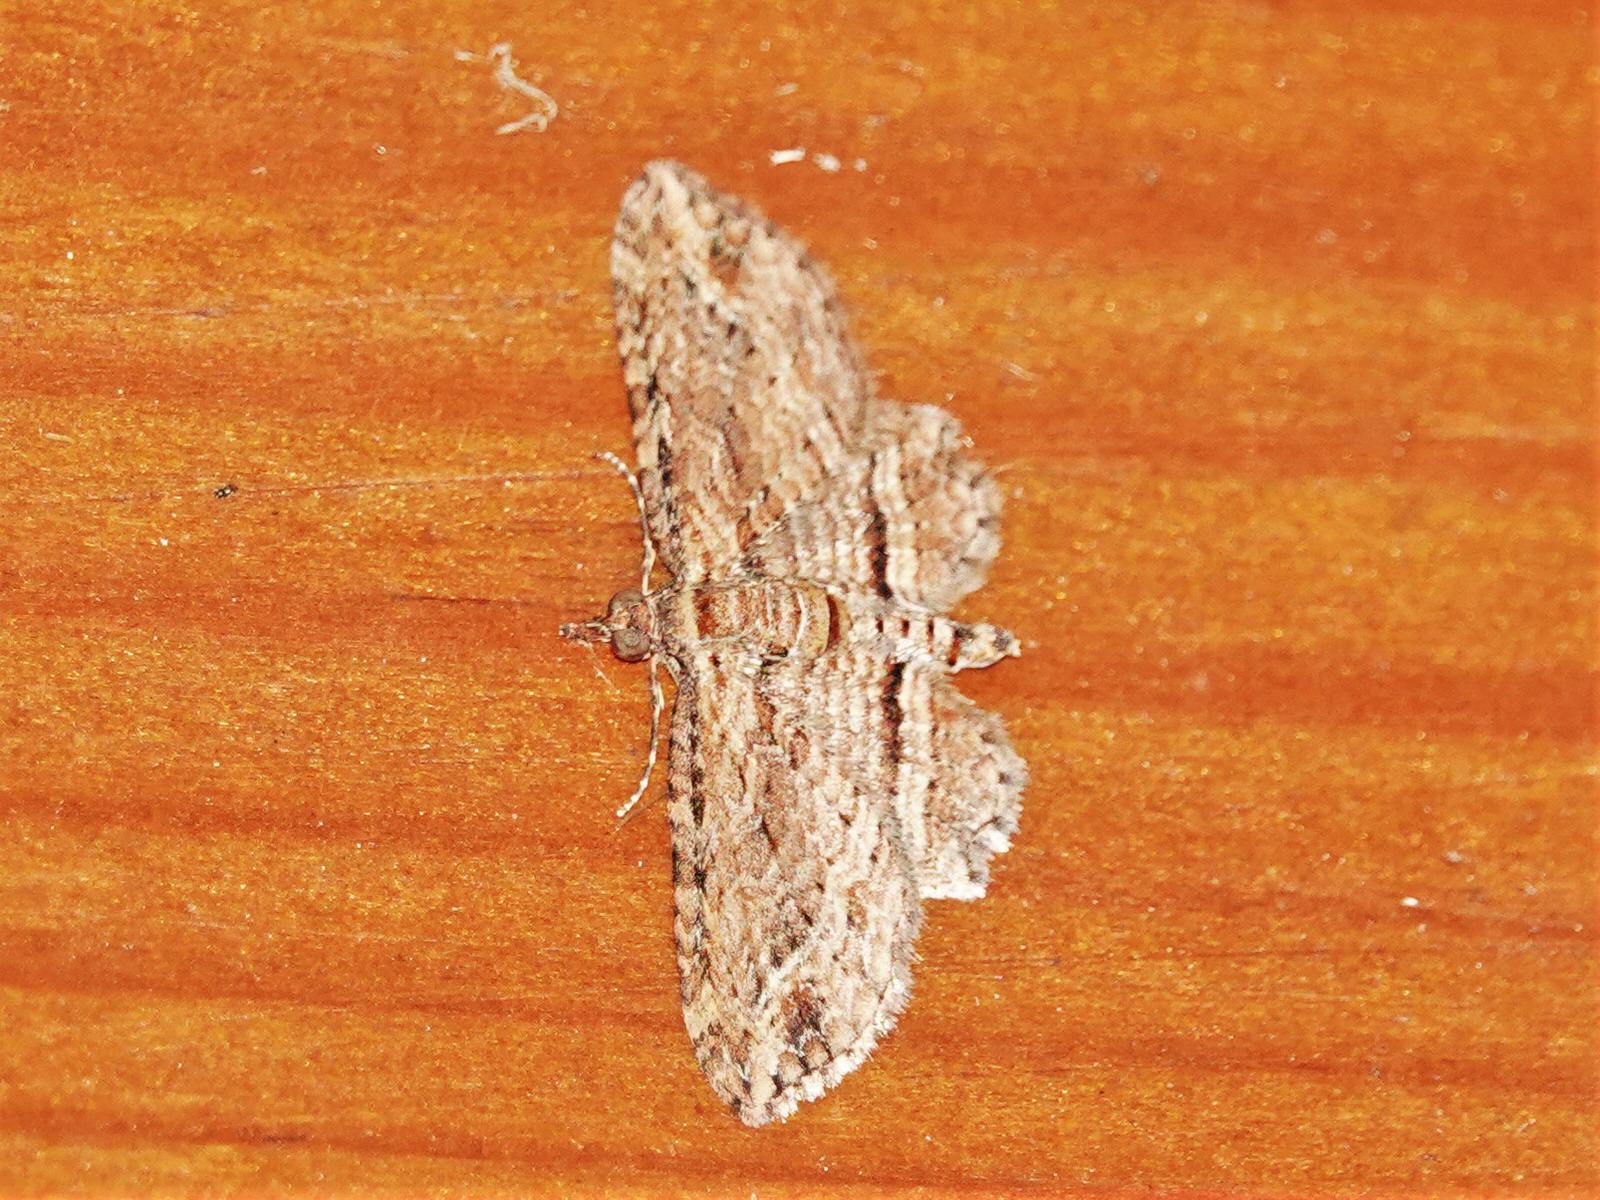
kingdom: Animalia
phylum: Arthropoda
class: Insecta
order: Lepidoptera
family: Geometridae
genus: Chloroclystis
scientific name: Chloroclystis filata
